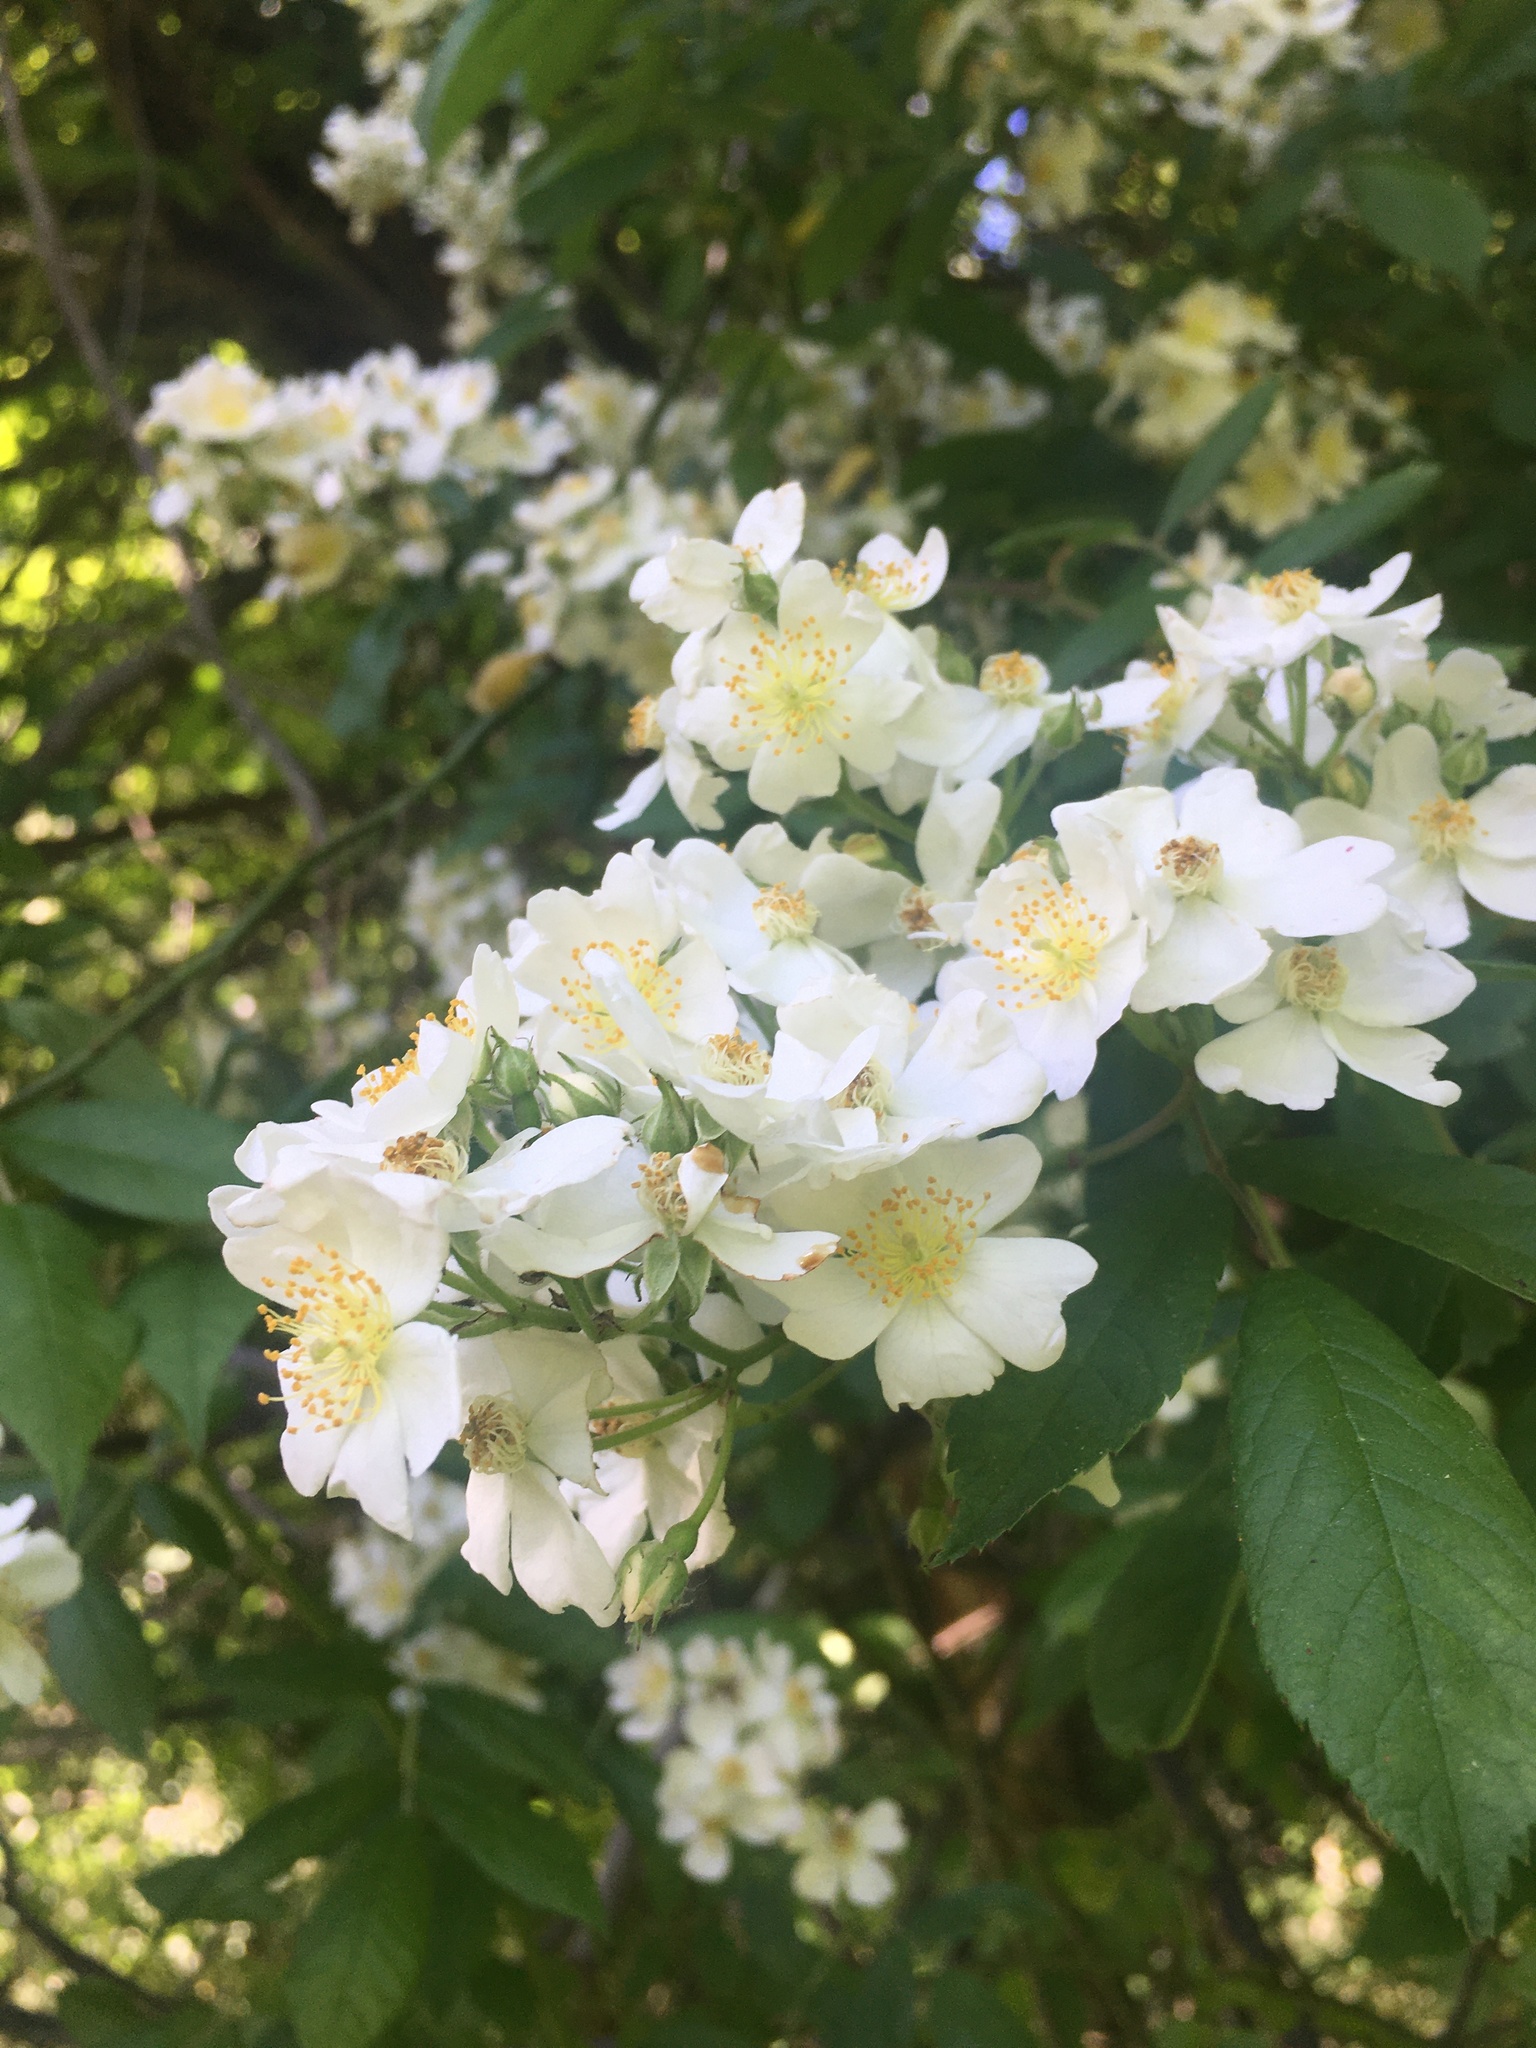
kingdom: Plantae
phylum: Tracheophyta
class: Magnoliopsida
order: Rosales
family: Rosaceae
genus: Rosa
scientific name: Rosa multiflora
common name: Multiflora rose
